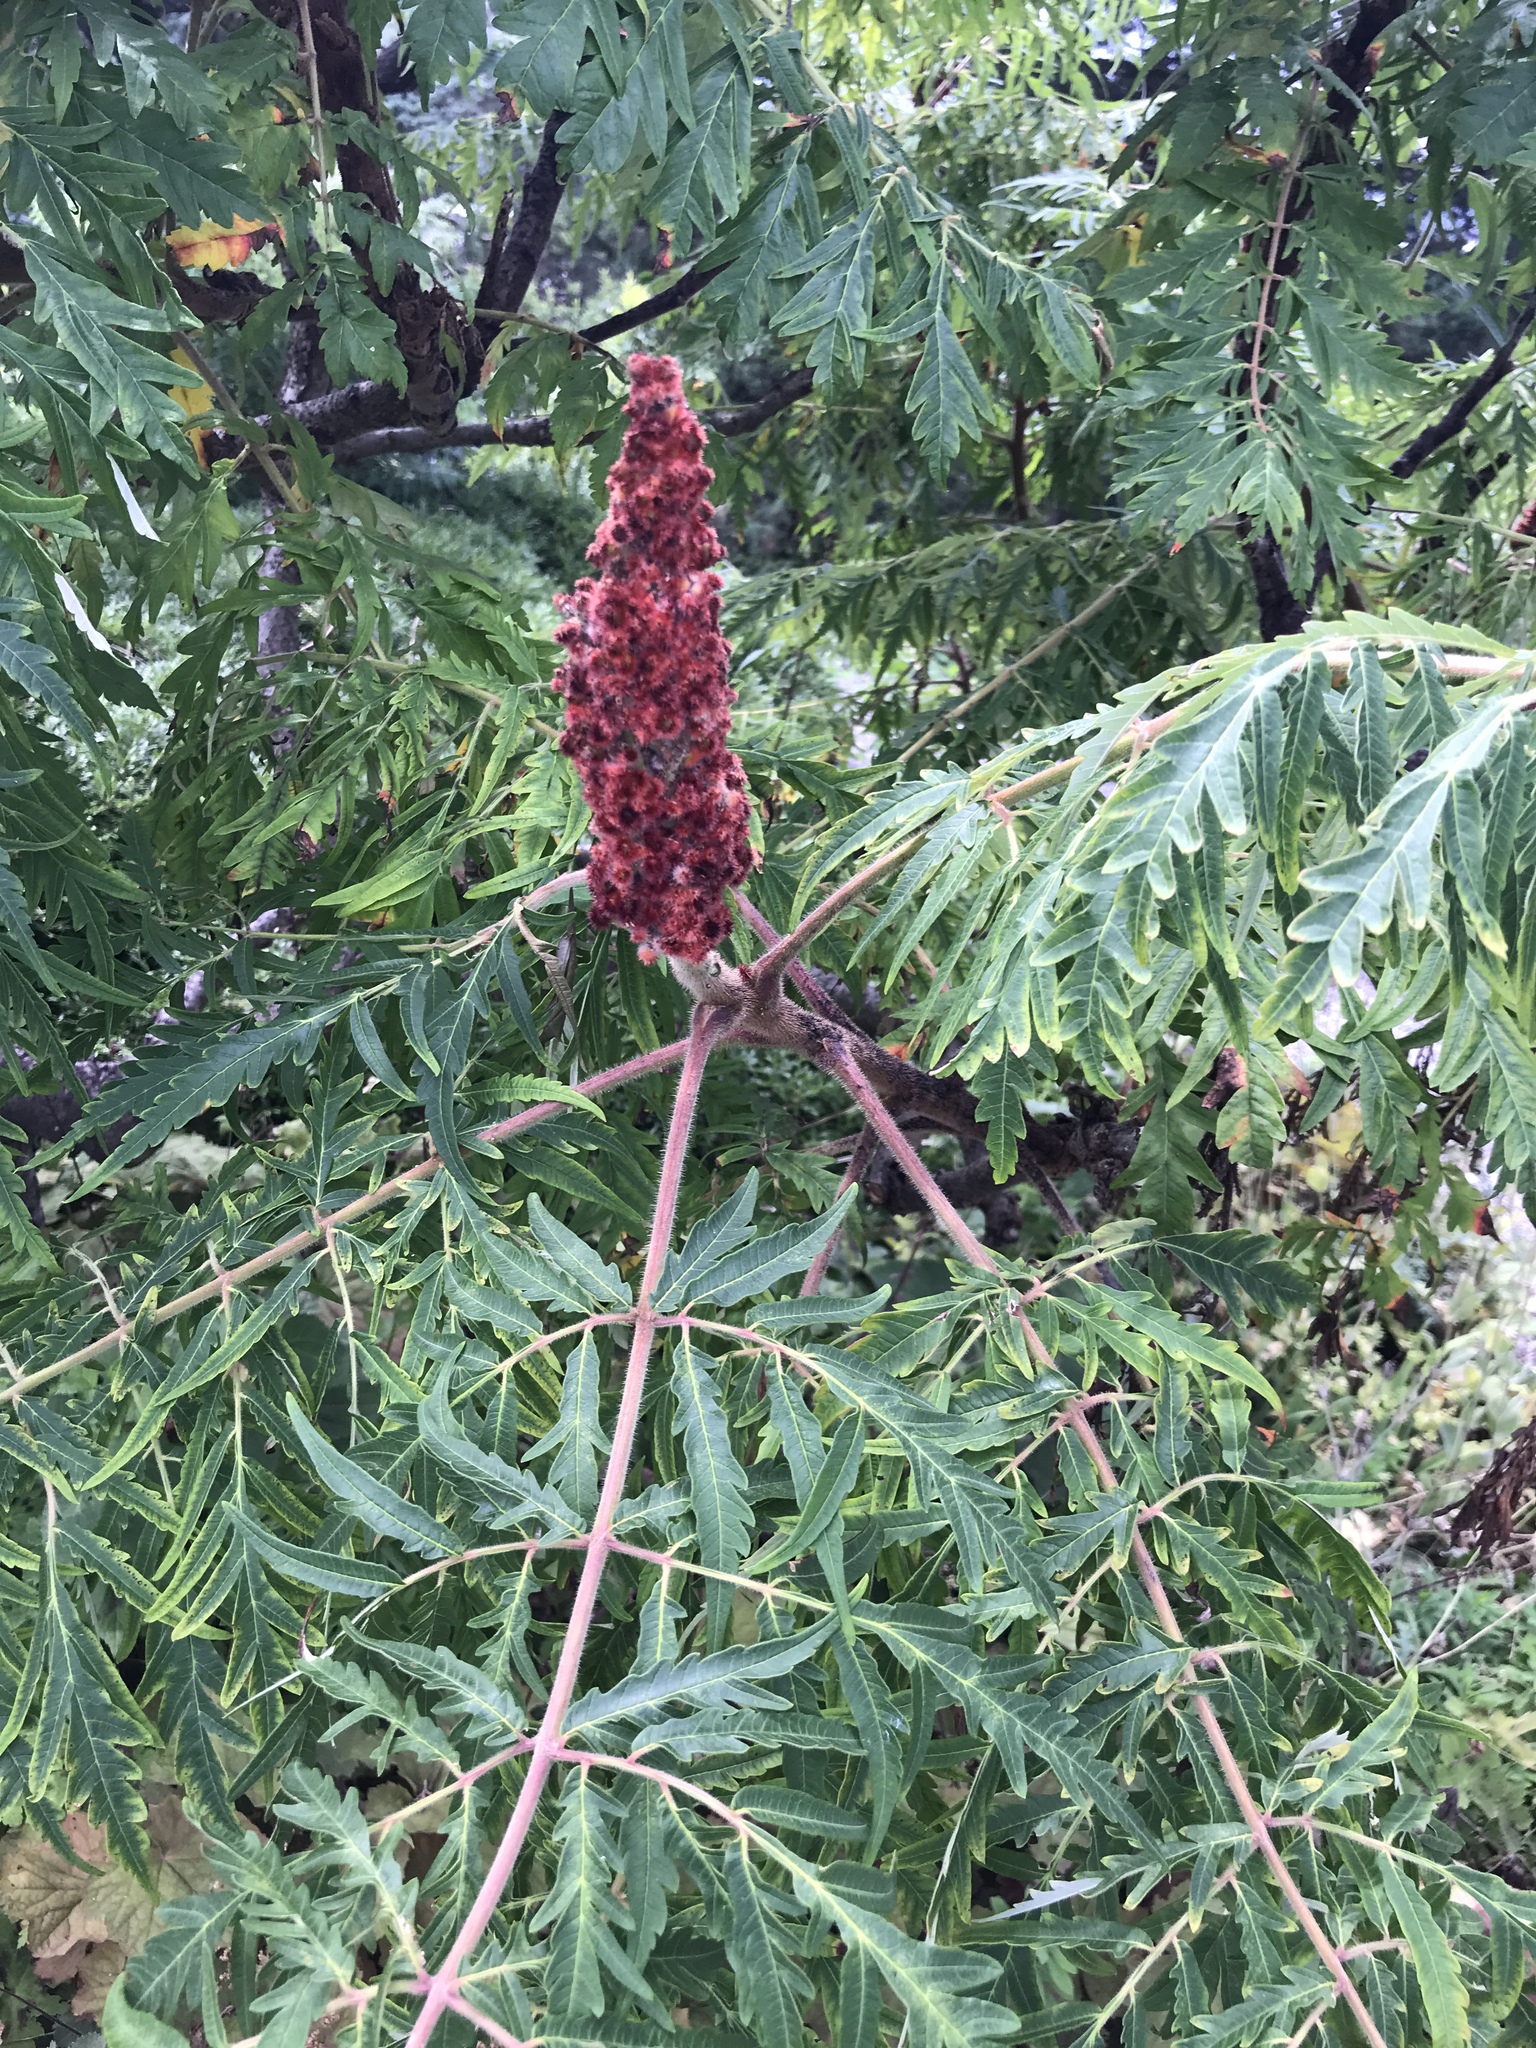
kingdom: Plantae
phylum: Tracheophyta
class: Magnoliopsida
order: Sapindales
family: Anacardiaceae
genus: Rhus
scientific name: Rhus typhina
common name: Staghorn sumac
